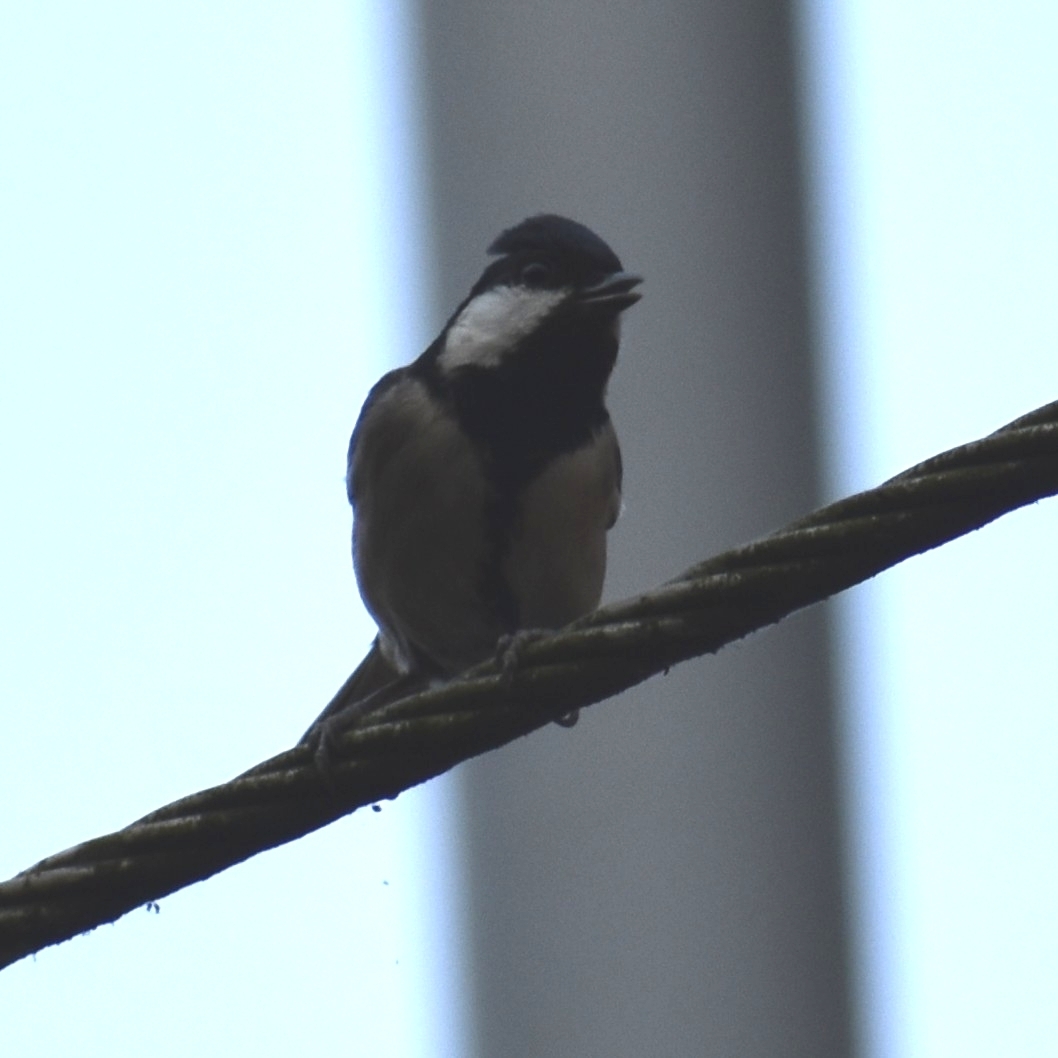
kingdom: Animalia
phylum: Chordata
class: Aves
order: Passeriformes
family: Paridae
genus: Parus
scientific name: Parus cinereus
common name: Cinereous tit
